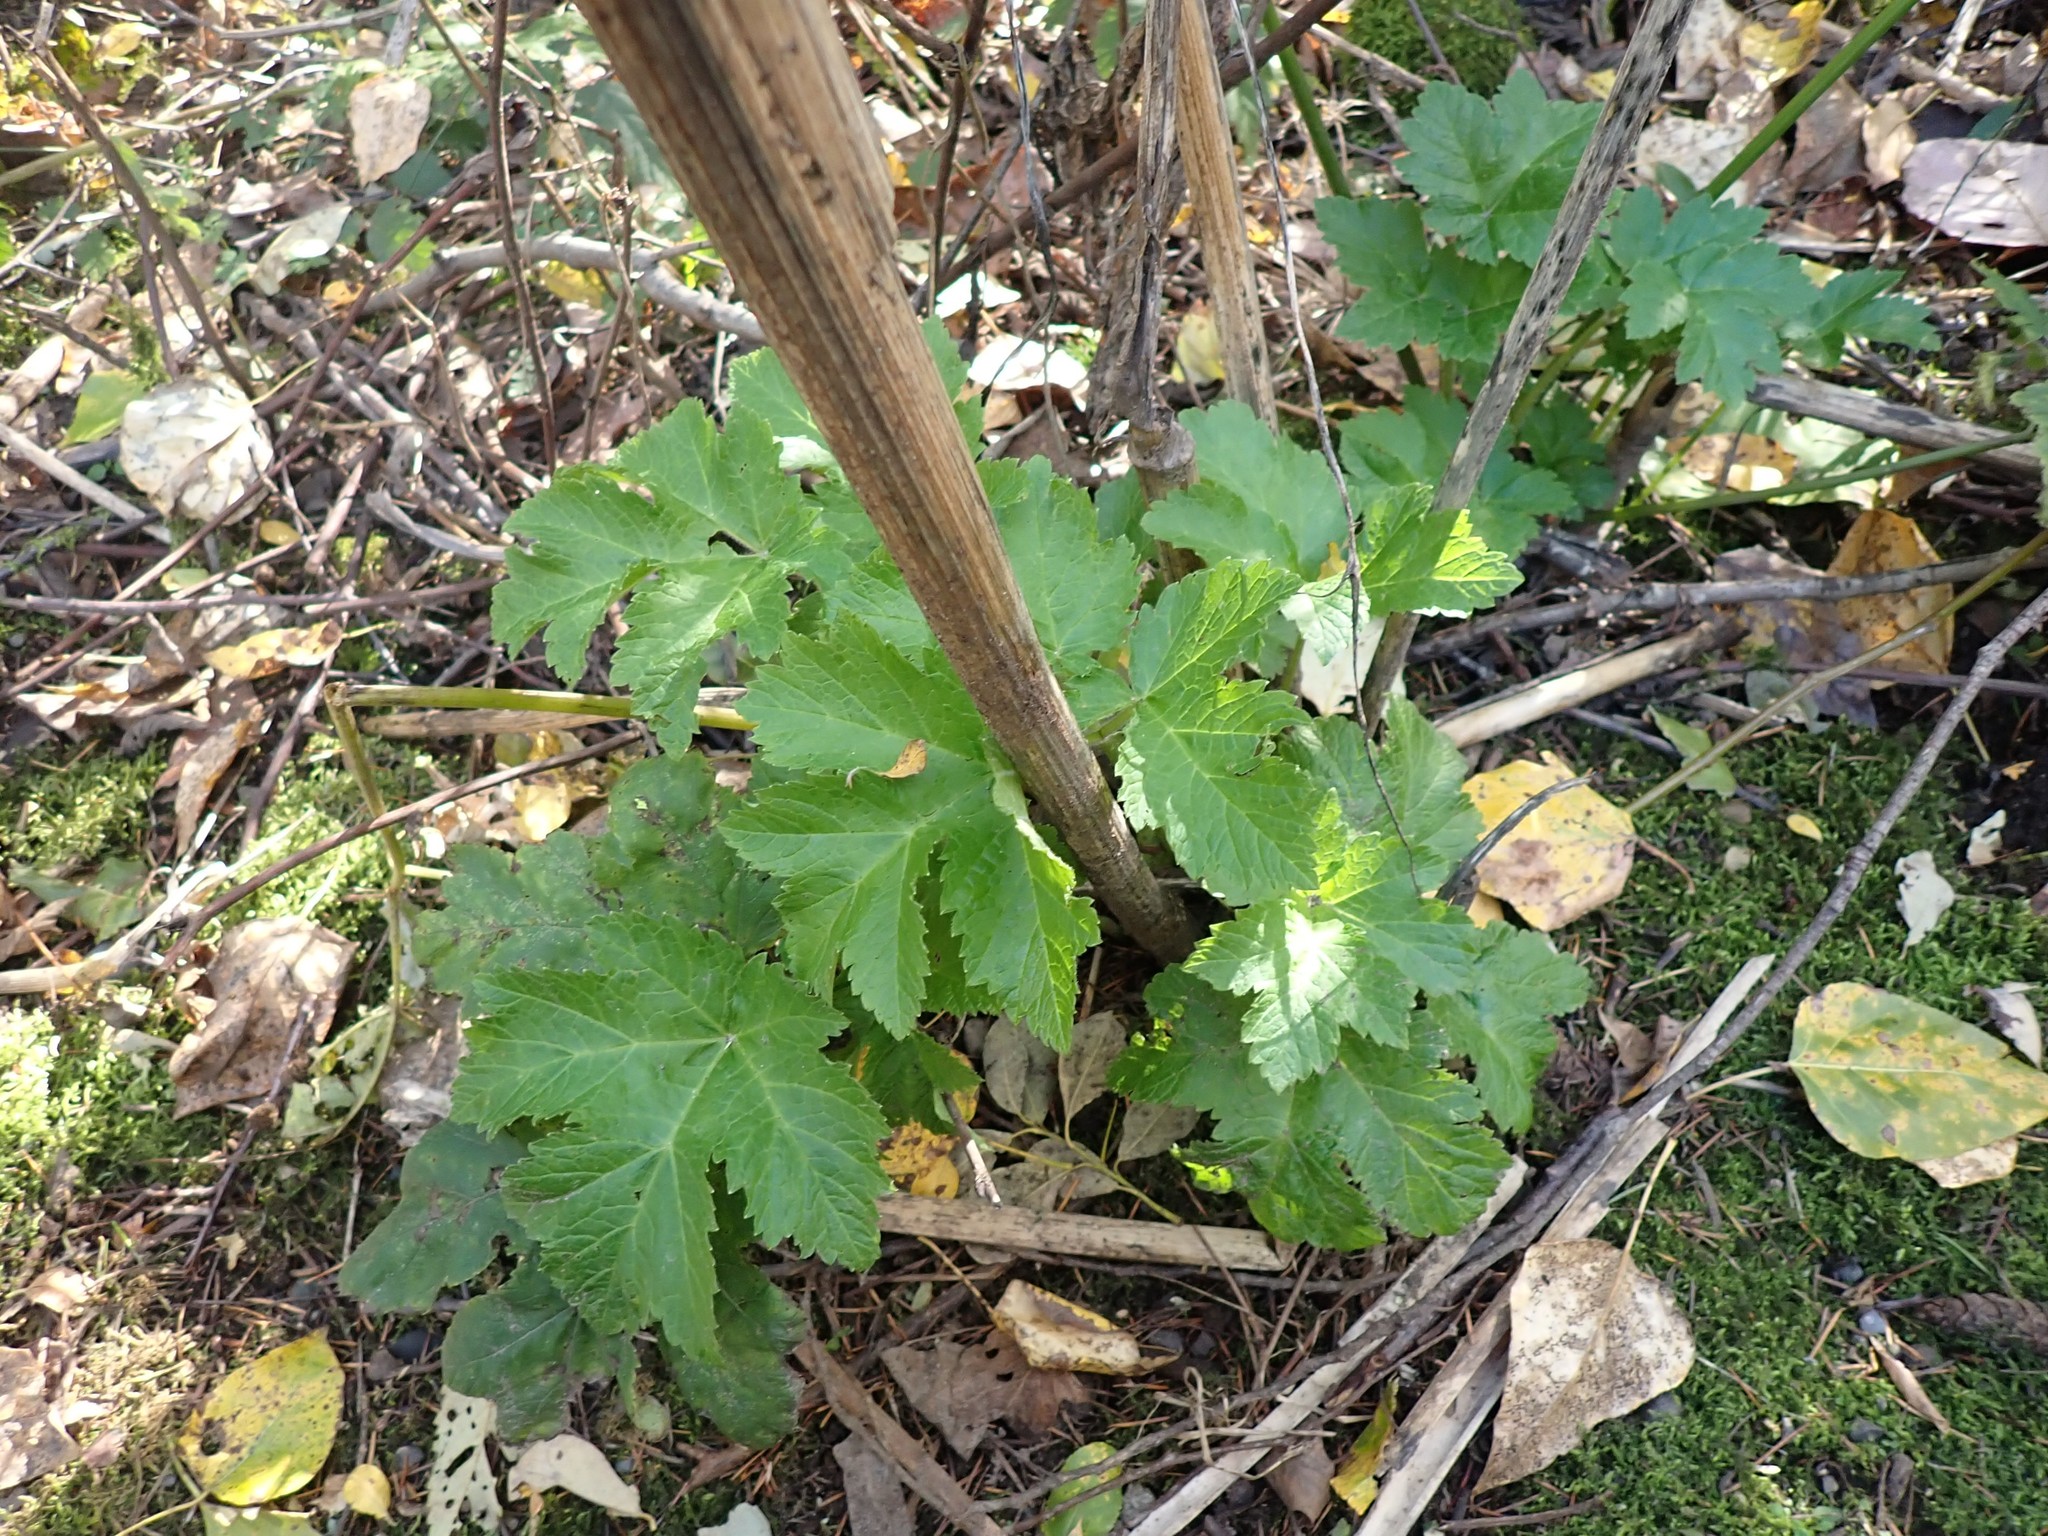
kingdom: Plantae
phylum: Tracheophyta
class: Magnoliopsida
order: Apiales
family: Apiaceae
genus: Heracleum
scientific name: Heracleum maximum
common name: American cow parsnip
